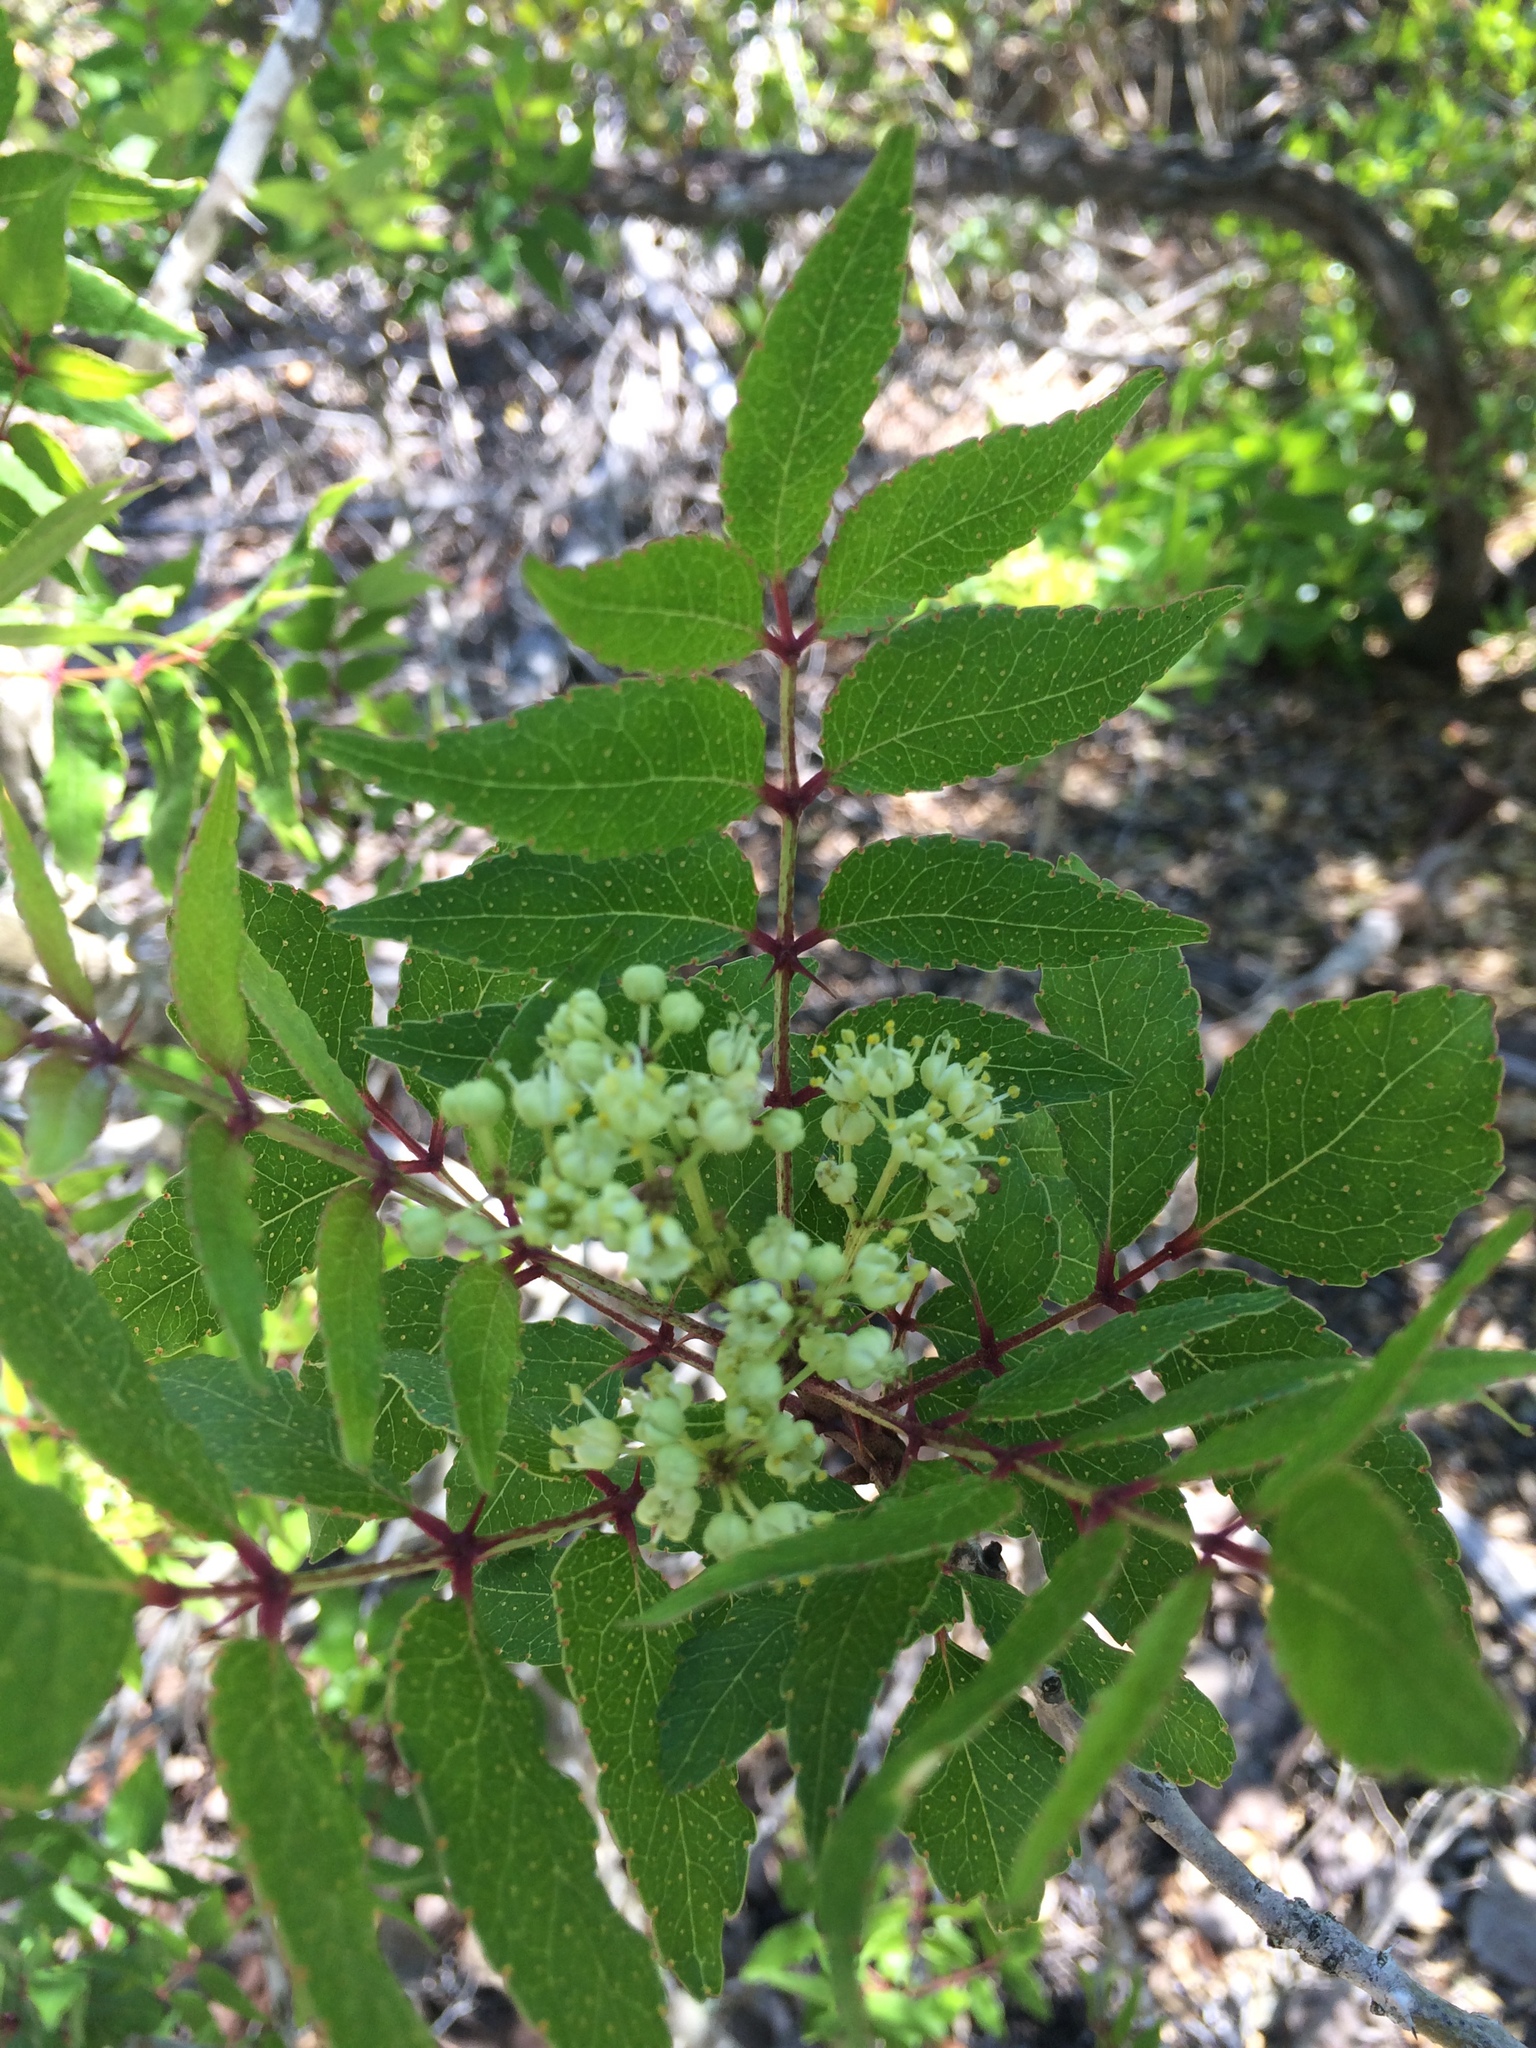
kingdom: Plantae
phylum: Tracheophyta
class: Magnoliopsida
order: Sapindales
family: Rutaceae
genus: Zanthoxylum
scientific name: Zanthoxylum clava-herculis
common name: Hercules'-club
